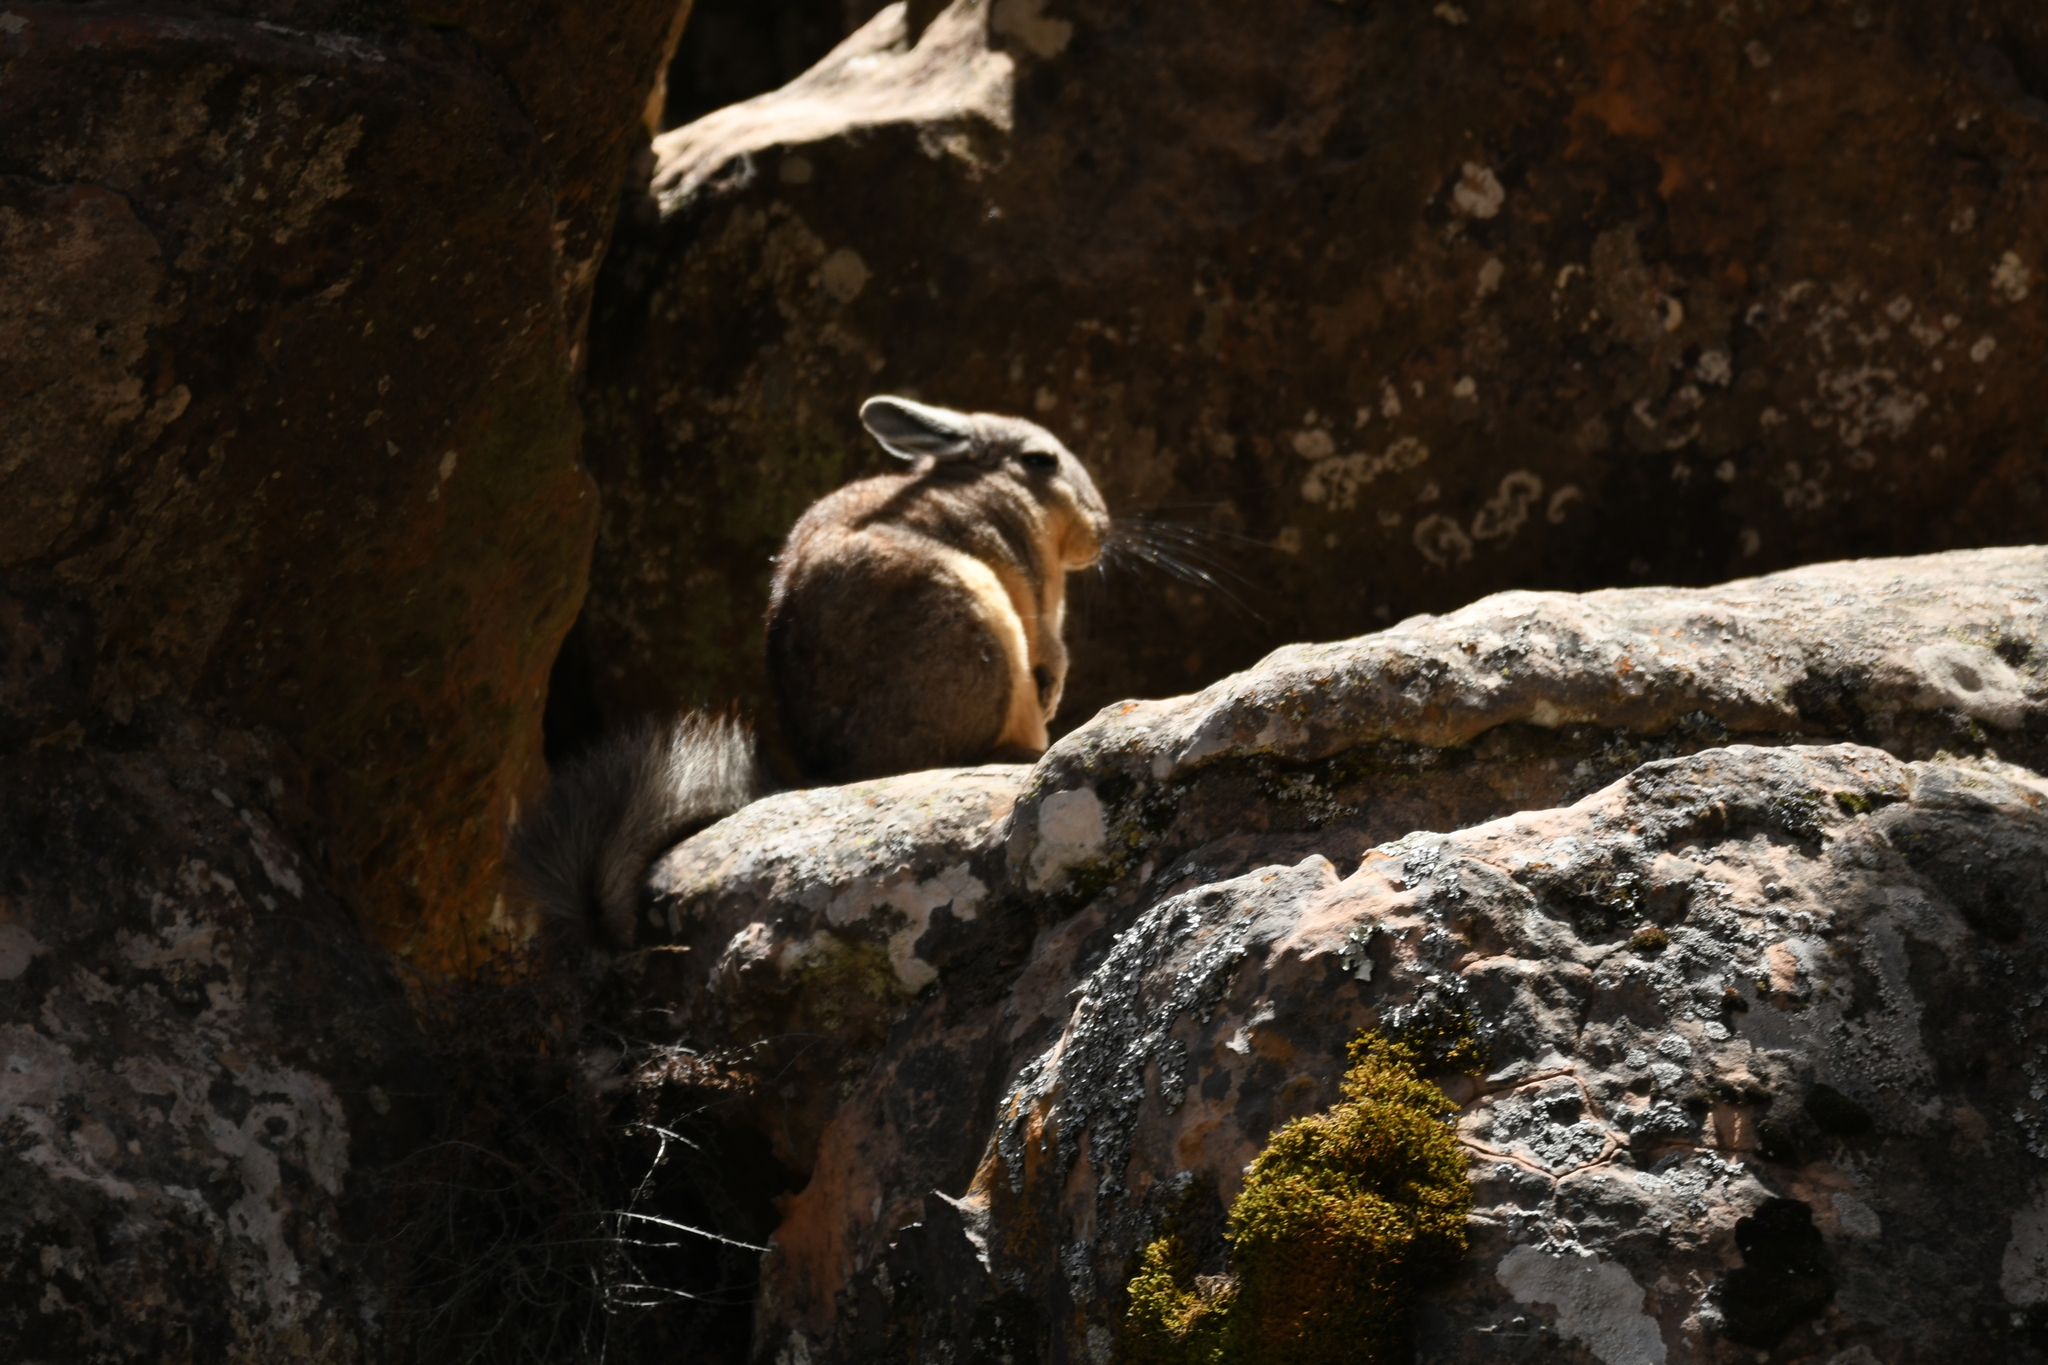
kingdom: Animalia
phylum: Chordata
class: Mammalia
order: Rodentia
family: Chinchillidae
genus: Lagidium
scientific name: Lagidium viscacia
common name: Southern viscacha
